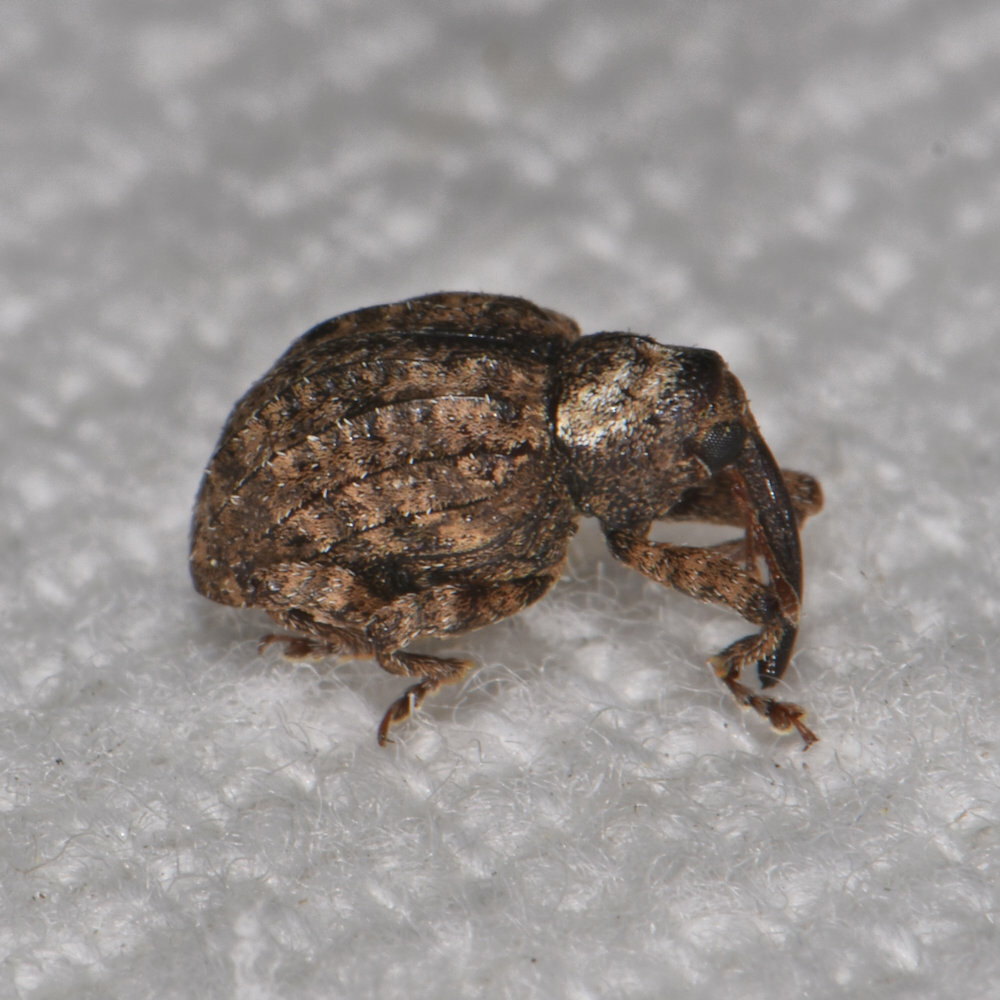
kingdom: Animalia
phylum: Arthropoda
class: Insecta
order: Coleoptera
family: Curculionidae
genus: Conotrachelus
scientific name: Conotrachelus crataegi
